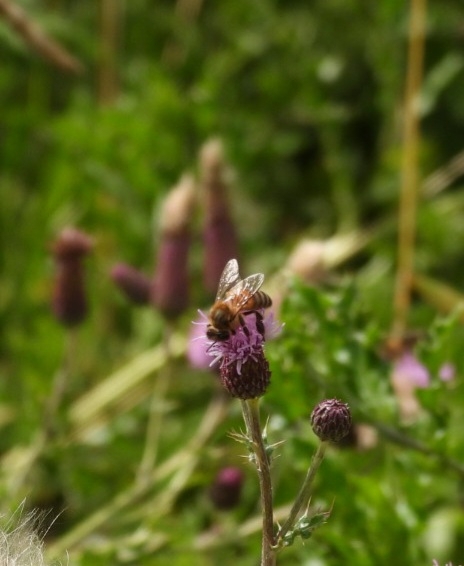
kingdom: Animalia
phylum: Arthropoda
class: Insecta
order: Hymenoptera
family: Apidae
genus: Apis
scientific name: Apis mellifera
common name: Honey bee
